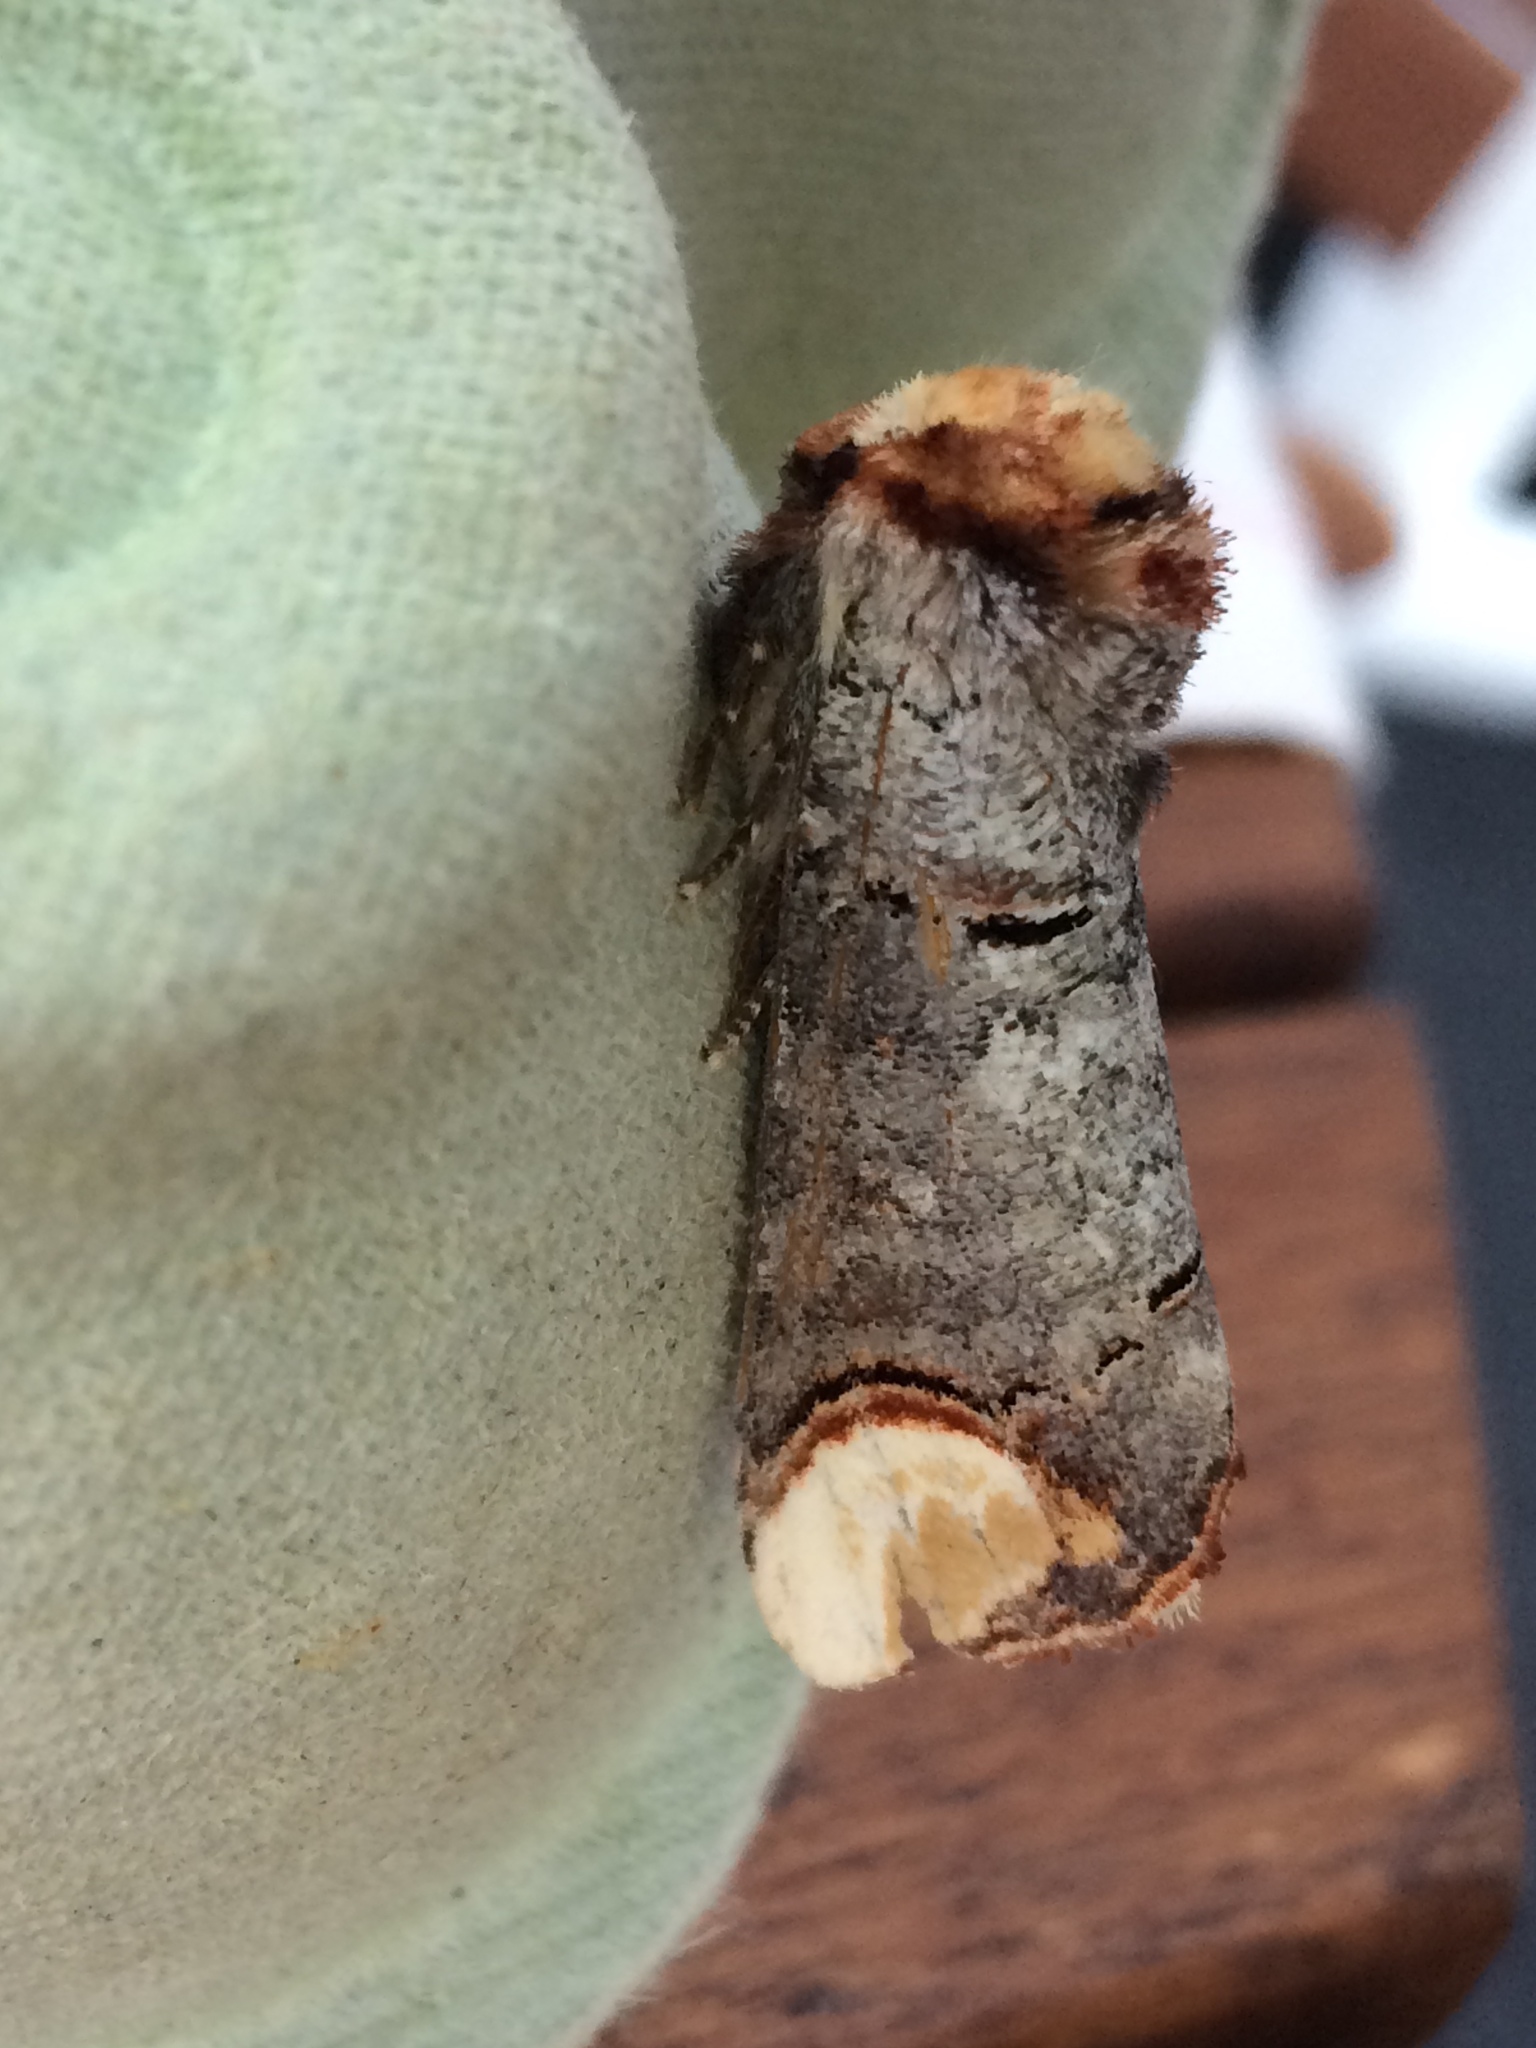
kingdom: Animalia
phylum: Arthropoda
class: Insecta
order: Lepidoptera
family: Notodontidae
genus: Phalera
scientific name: Phalera bucephala
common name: Buff-tip
